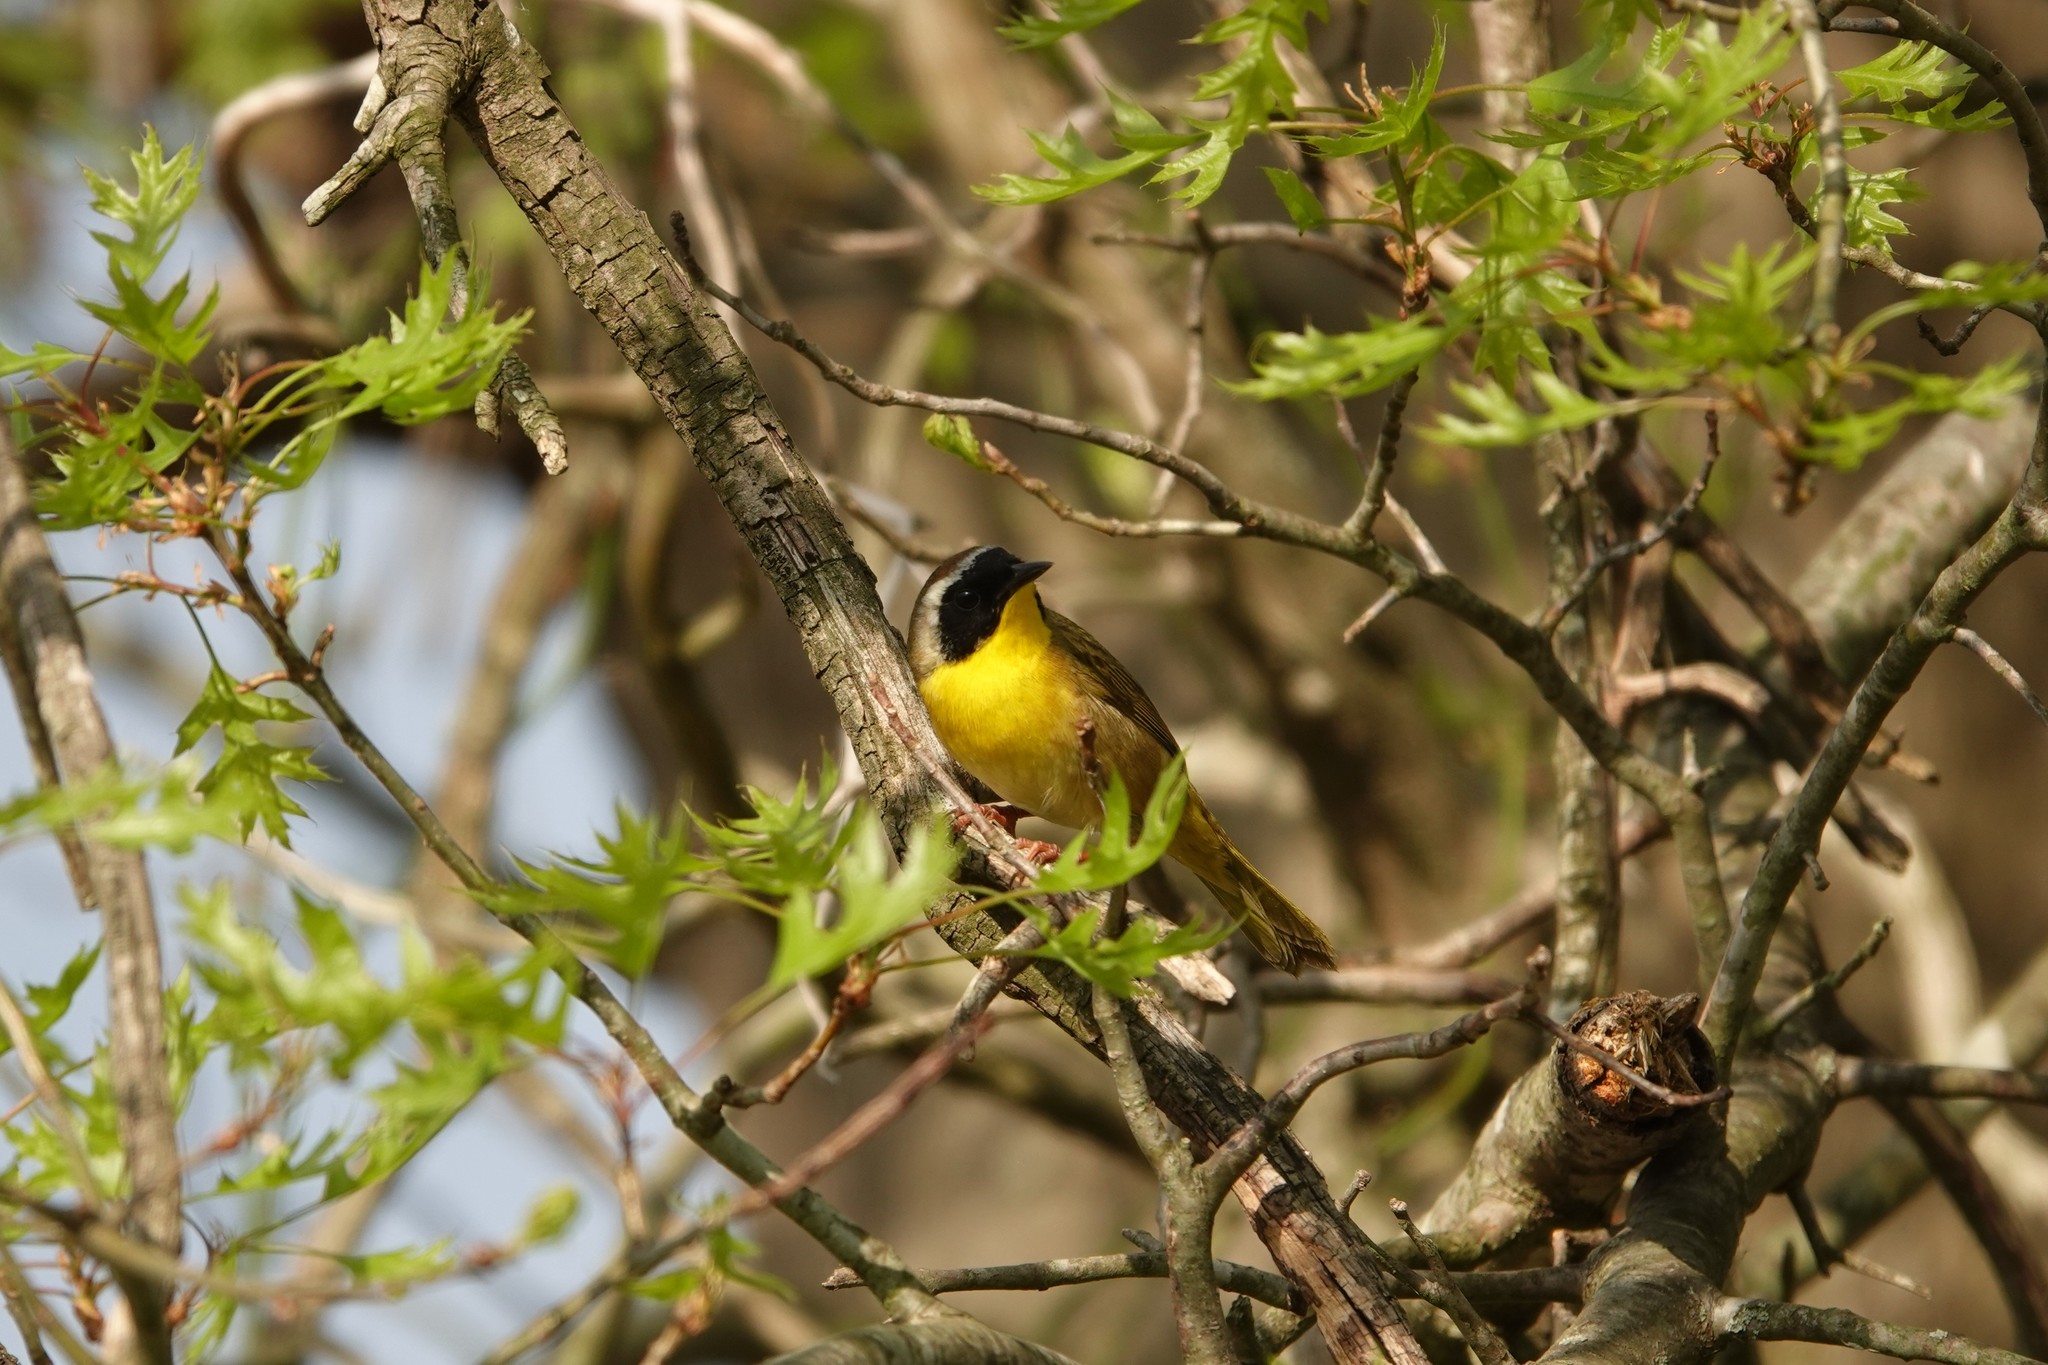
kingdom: Animalia
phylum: Chordata
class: Aves
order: Passeriformes
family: Parulidae
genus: Geothlypis
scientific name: Geothlypis trichas
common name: Common yellowthroat
